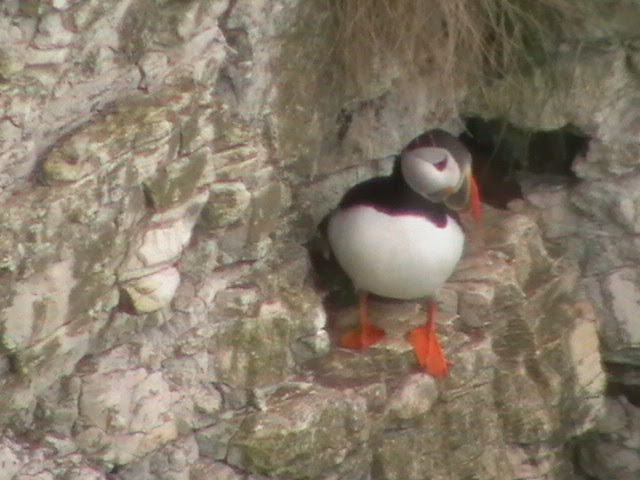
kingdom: Animalia
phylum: Chordata
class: Aves
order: Charadriiformes
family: Alcidae
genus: Fratercula
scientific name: Fratercula arctica
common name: Atlantic puffin
